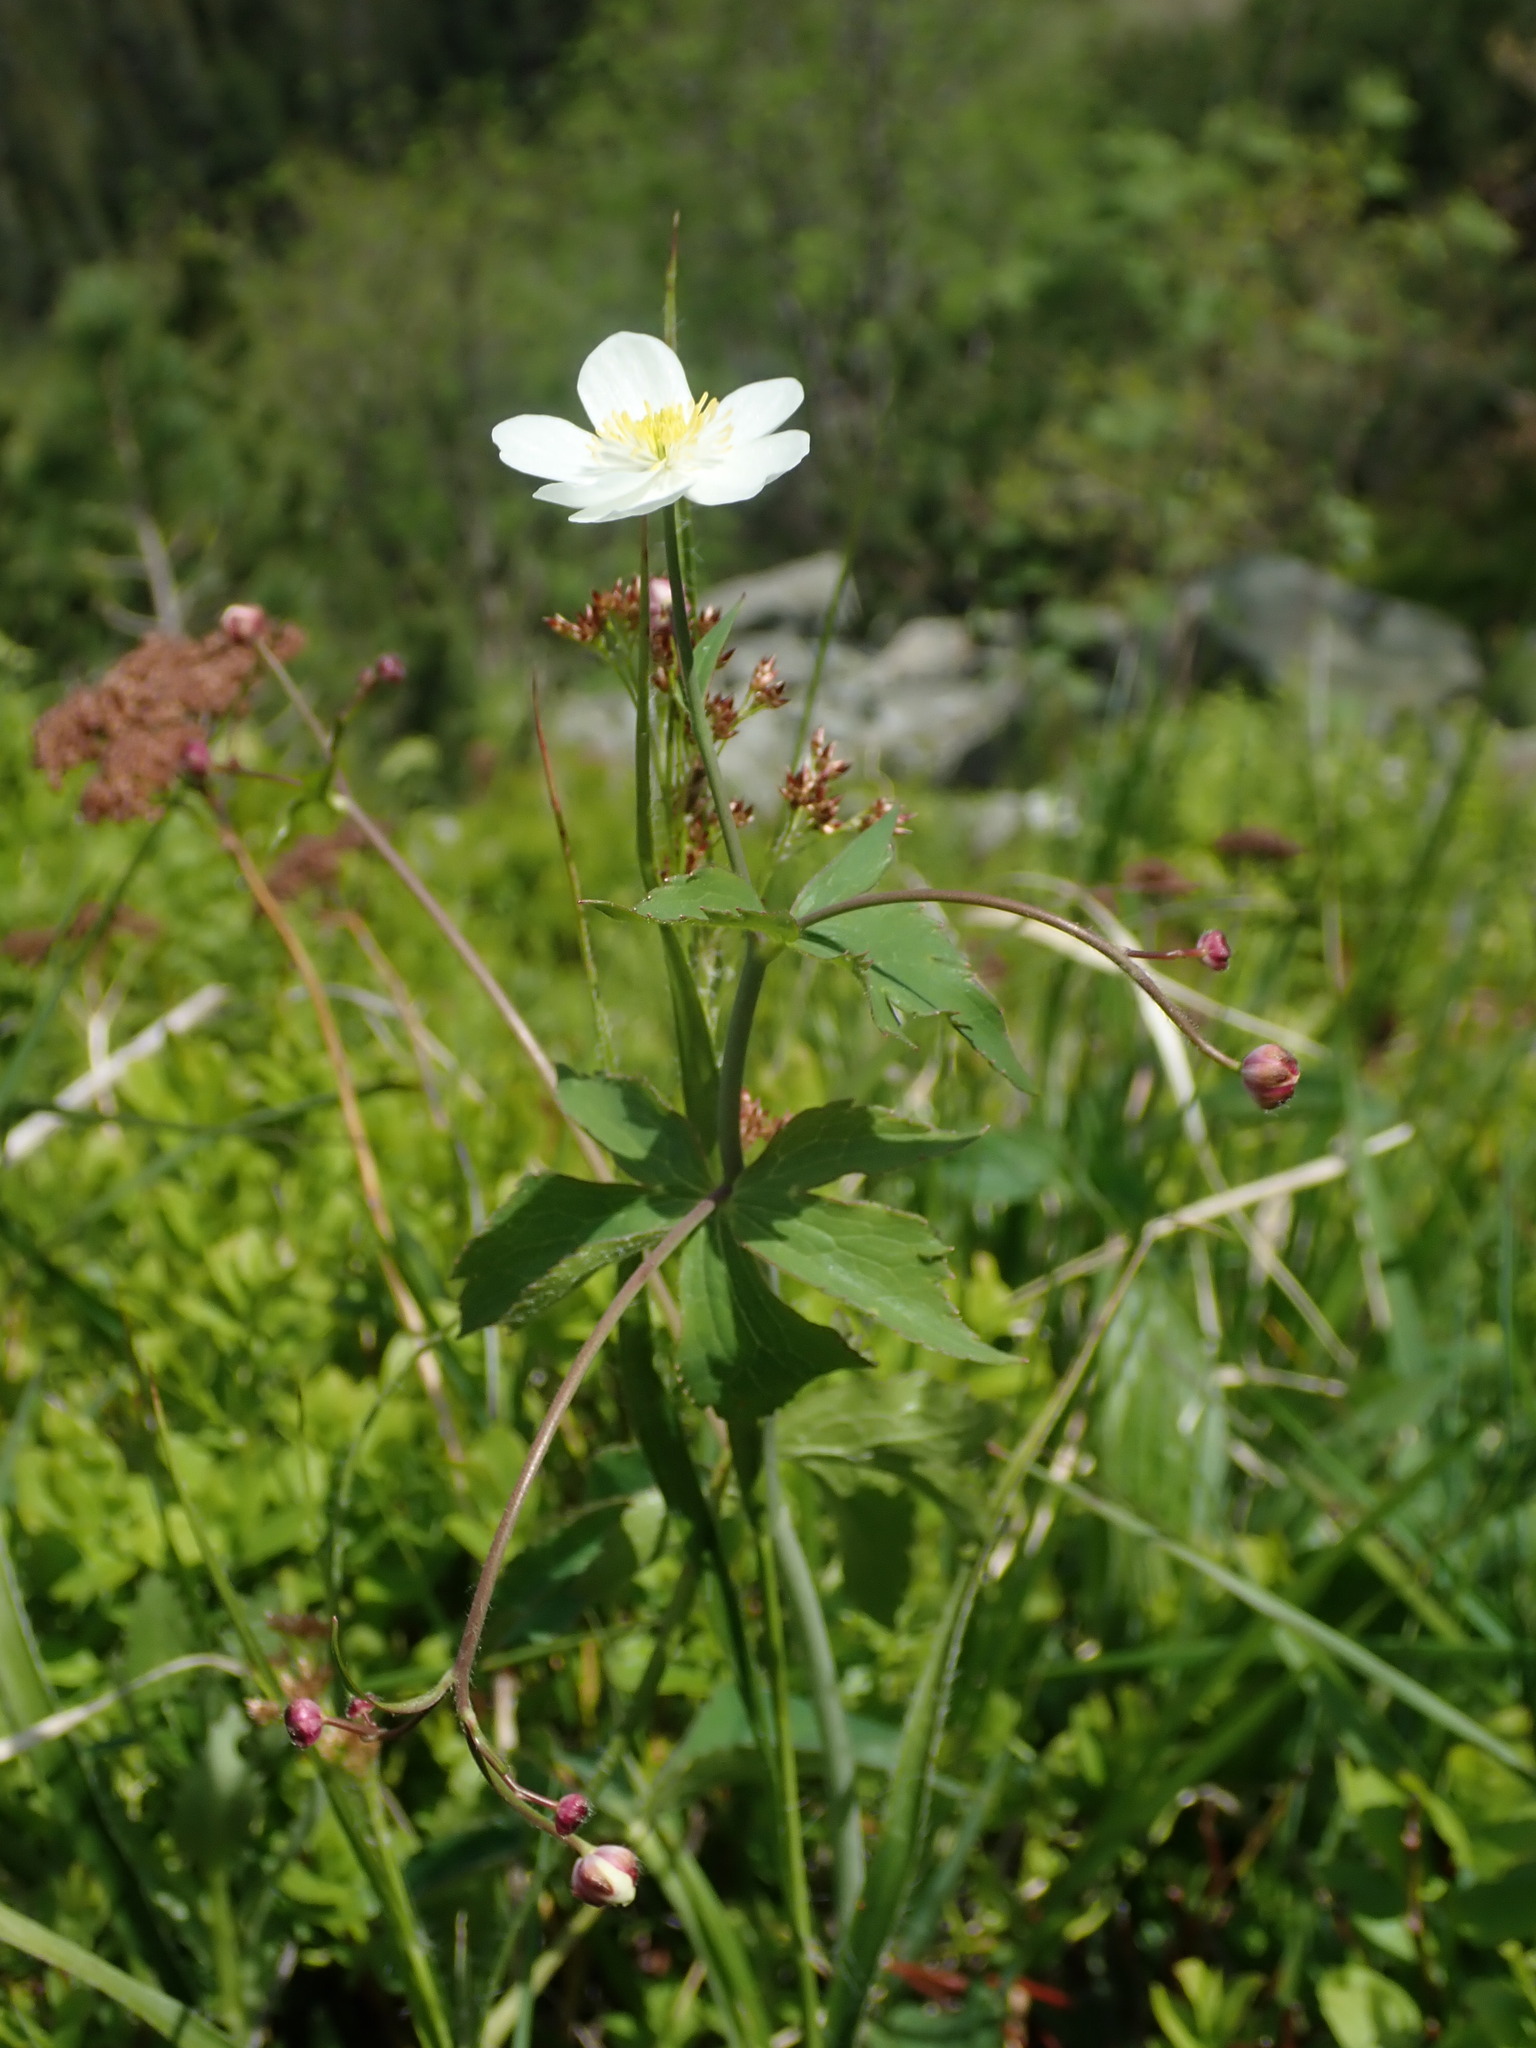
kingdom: Plantae
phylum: Tracheophyta
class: Magnoliopsida
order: Ranunculales
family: Ranunculaceae
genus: Ranunculus
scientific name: Ranunculus platanifolius
